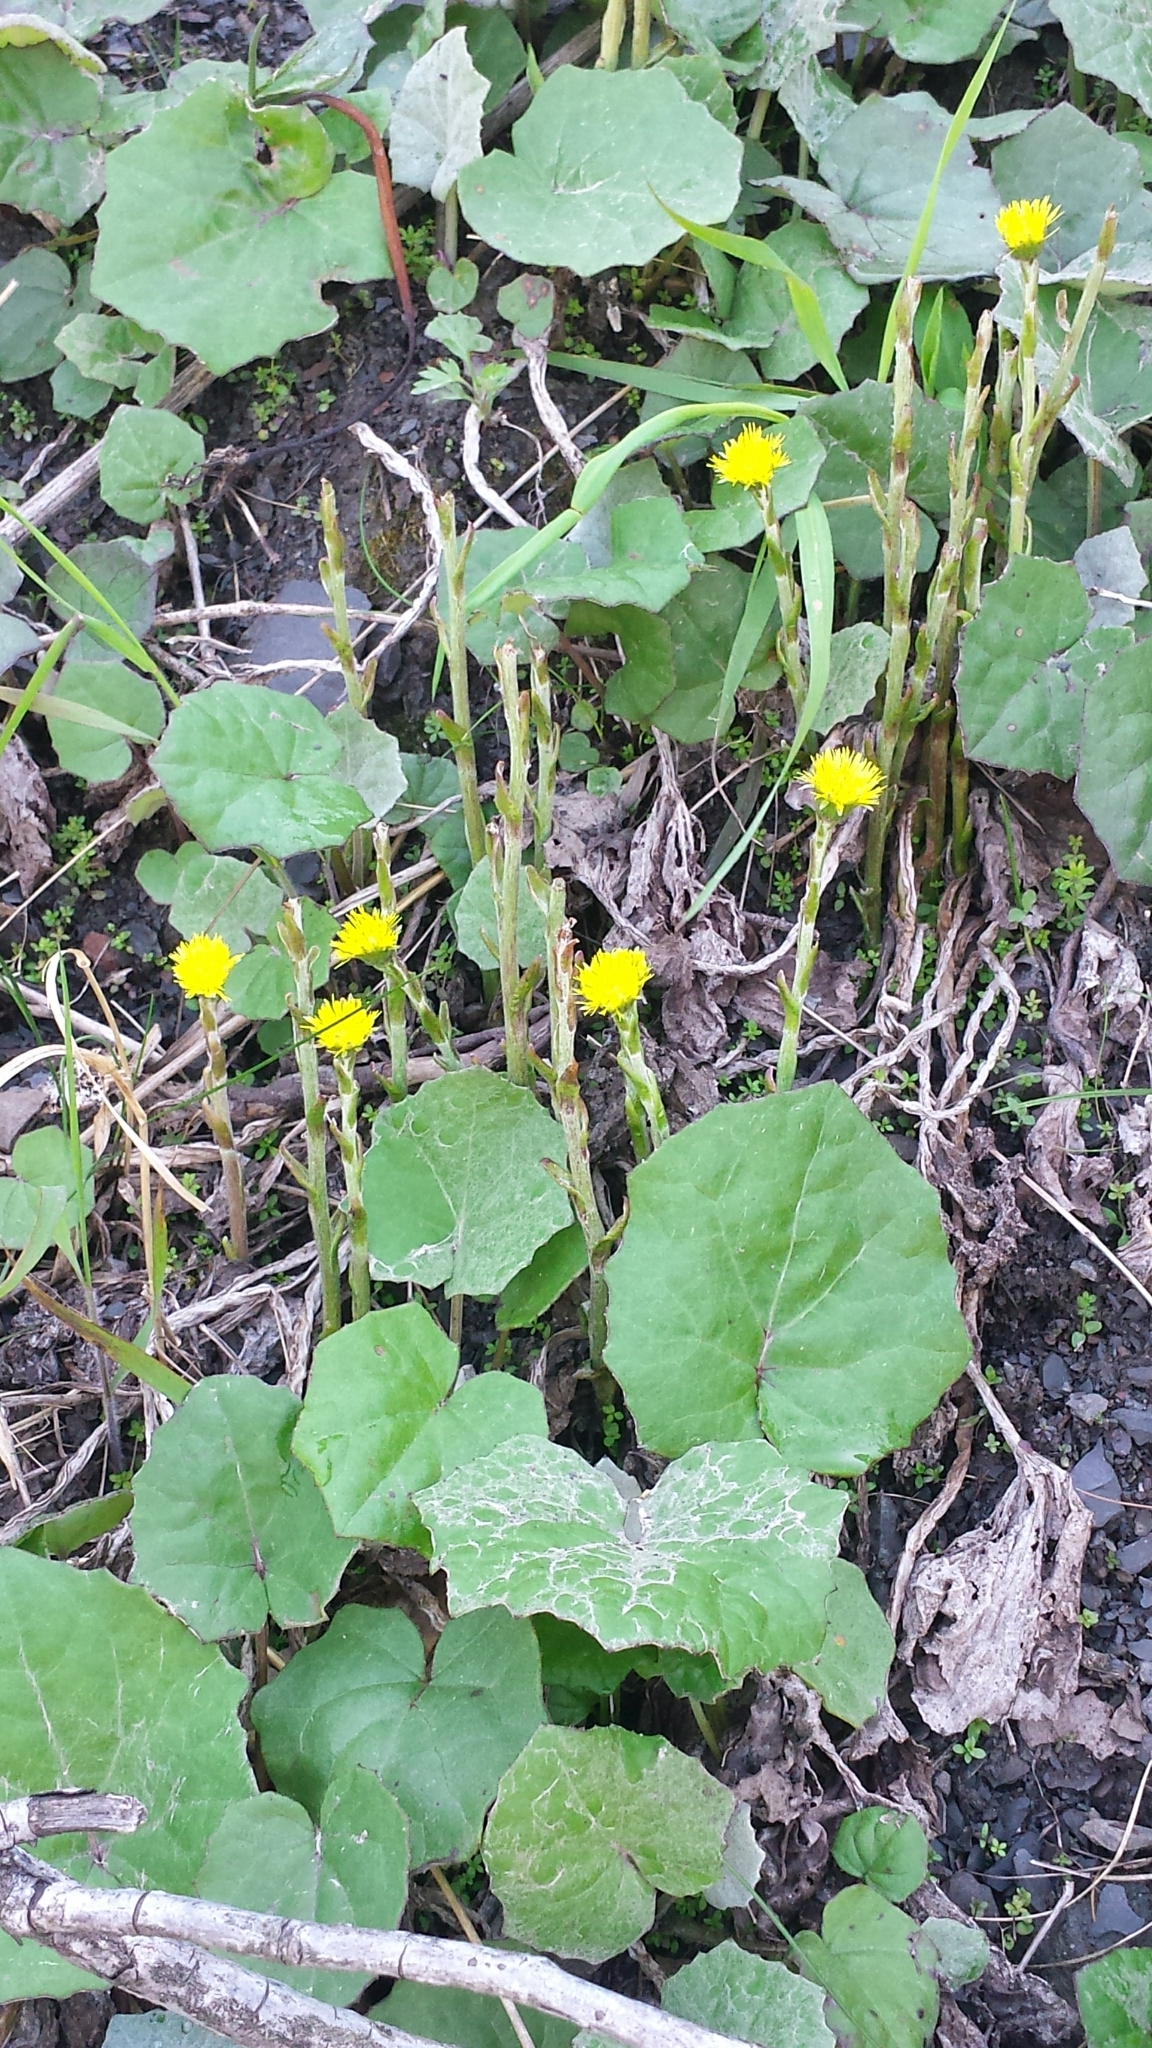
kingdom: Plantae
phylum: Tracheophyta
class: Magnoliopsida
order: Asterales
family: Asteraceae
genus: Tussilago
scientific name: Tussilago farfara
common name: Coltsfoot
